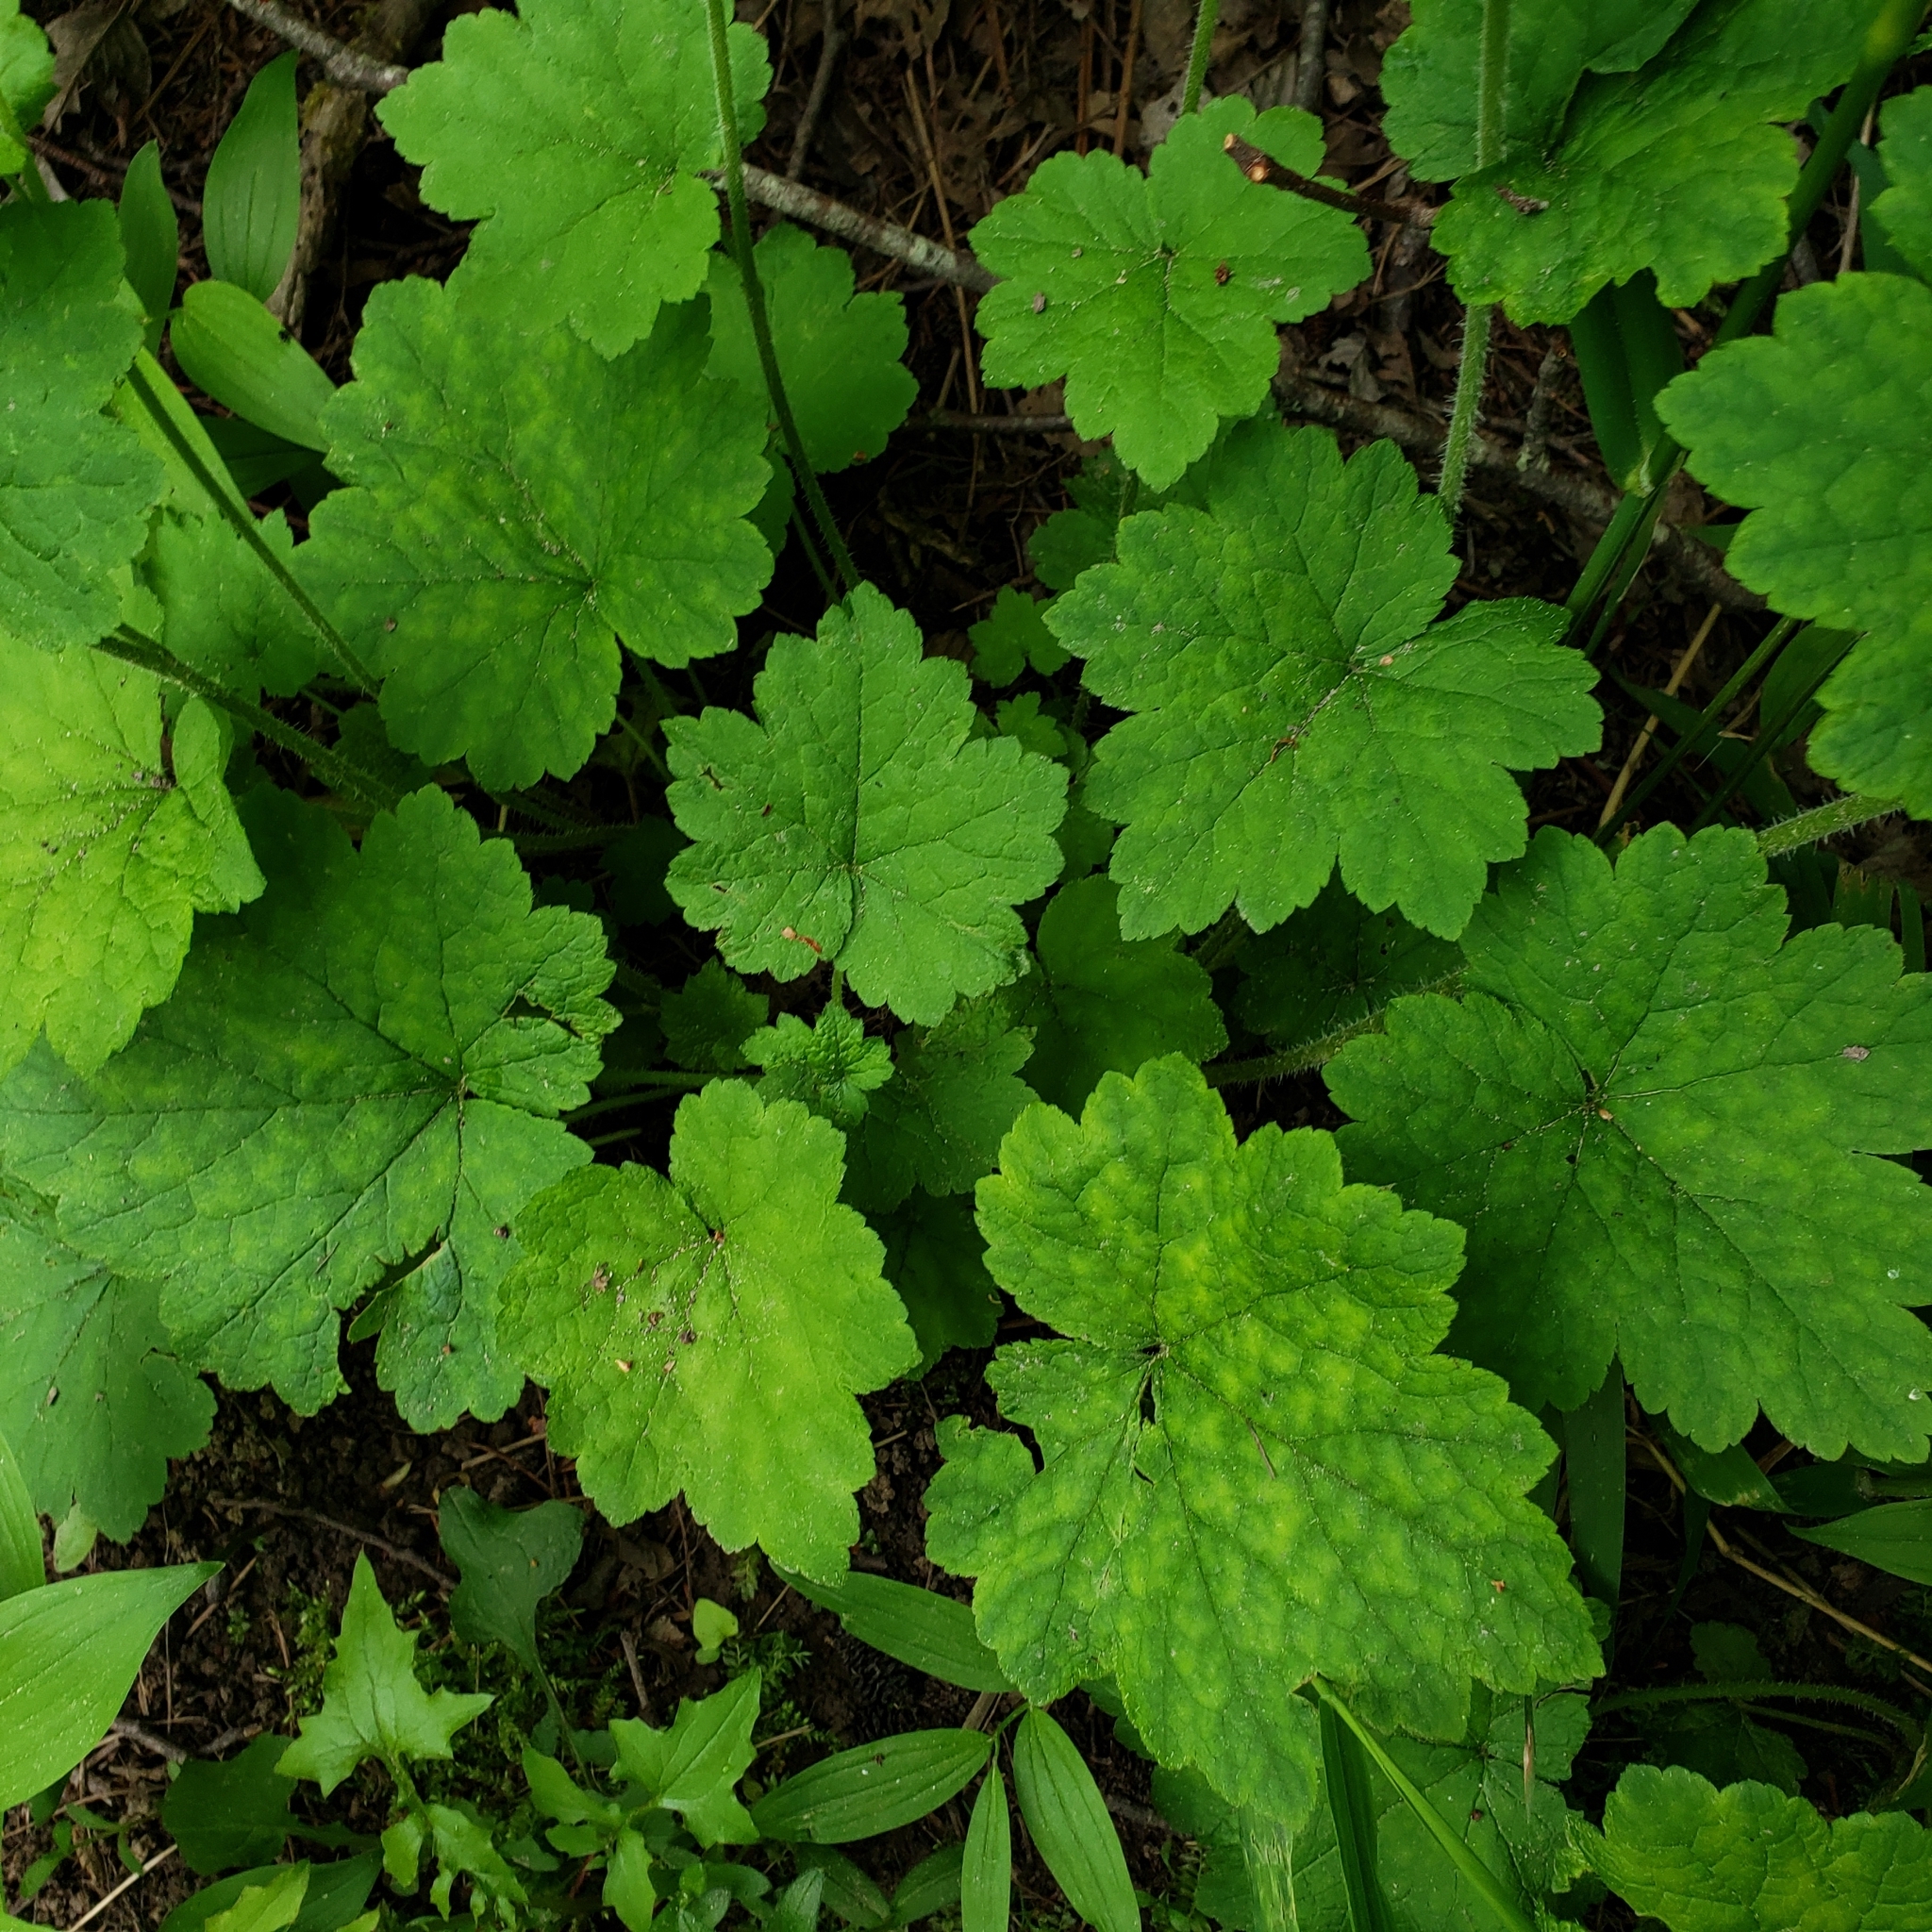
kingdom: Plantae
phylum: Tracheophyta
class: Magnoliopsida
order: Saxifragales
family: Saxifragaceae
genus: Tellima
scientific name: Tellima grandiflora
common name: Fringecups
